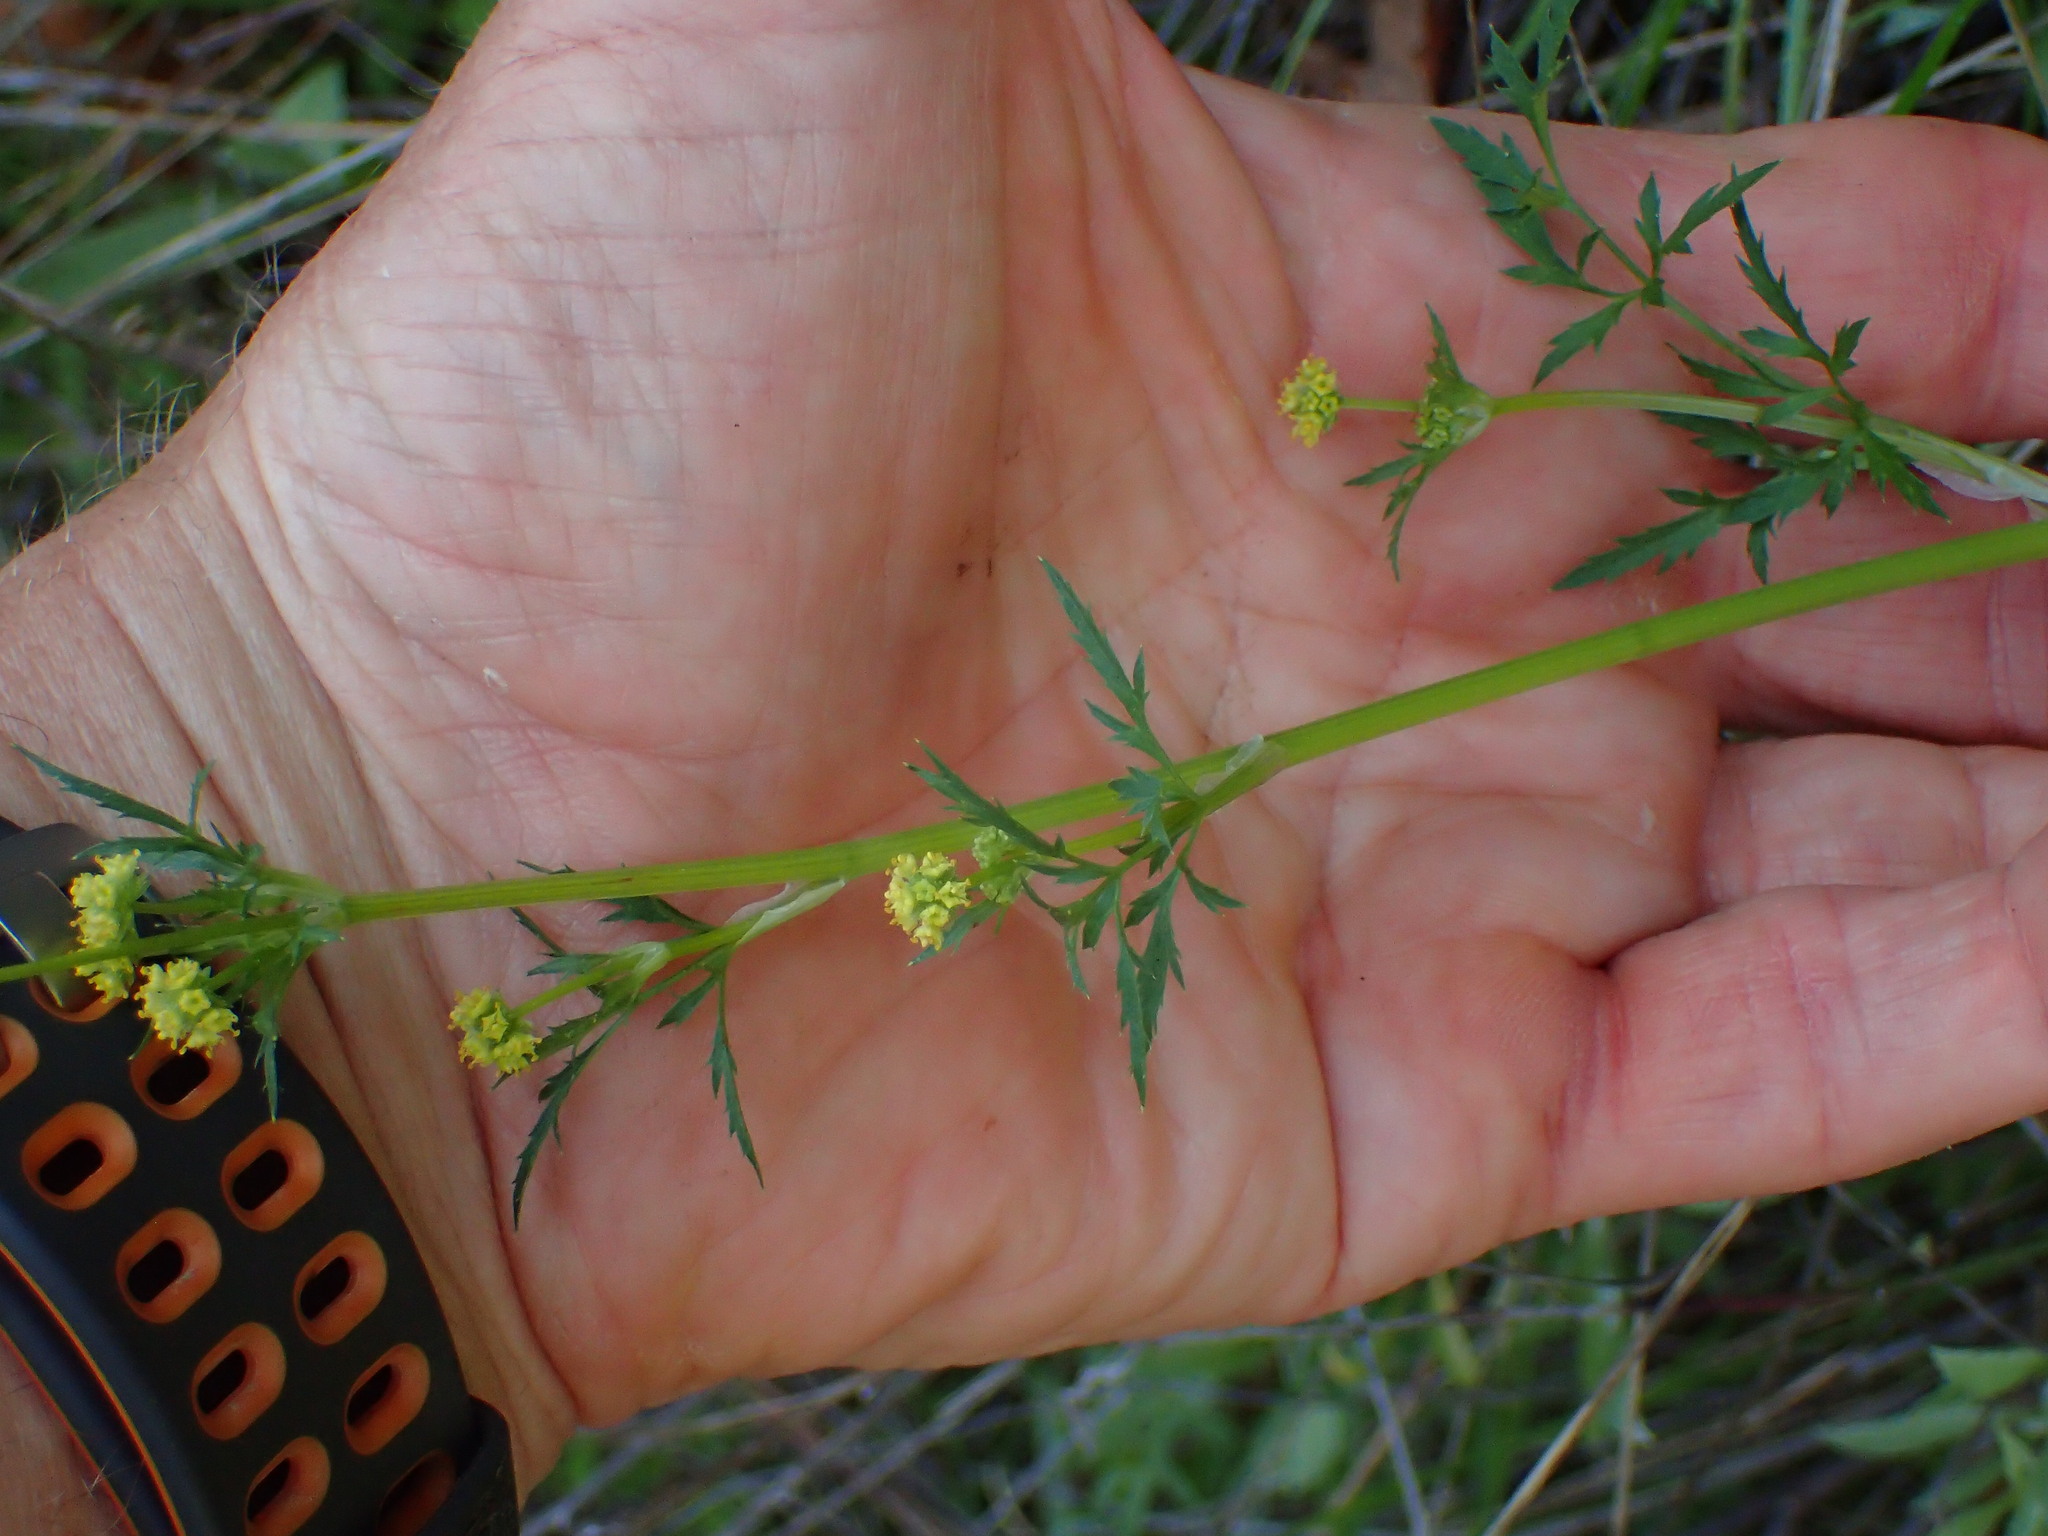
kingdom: Plantae
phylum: Tracheophyta
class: Magnoliopsida
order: Apiales
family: Apiaceae
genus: Sanicula
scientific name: Sanicula bipinnata
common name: Poison sanicle
